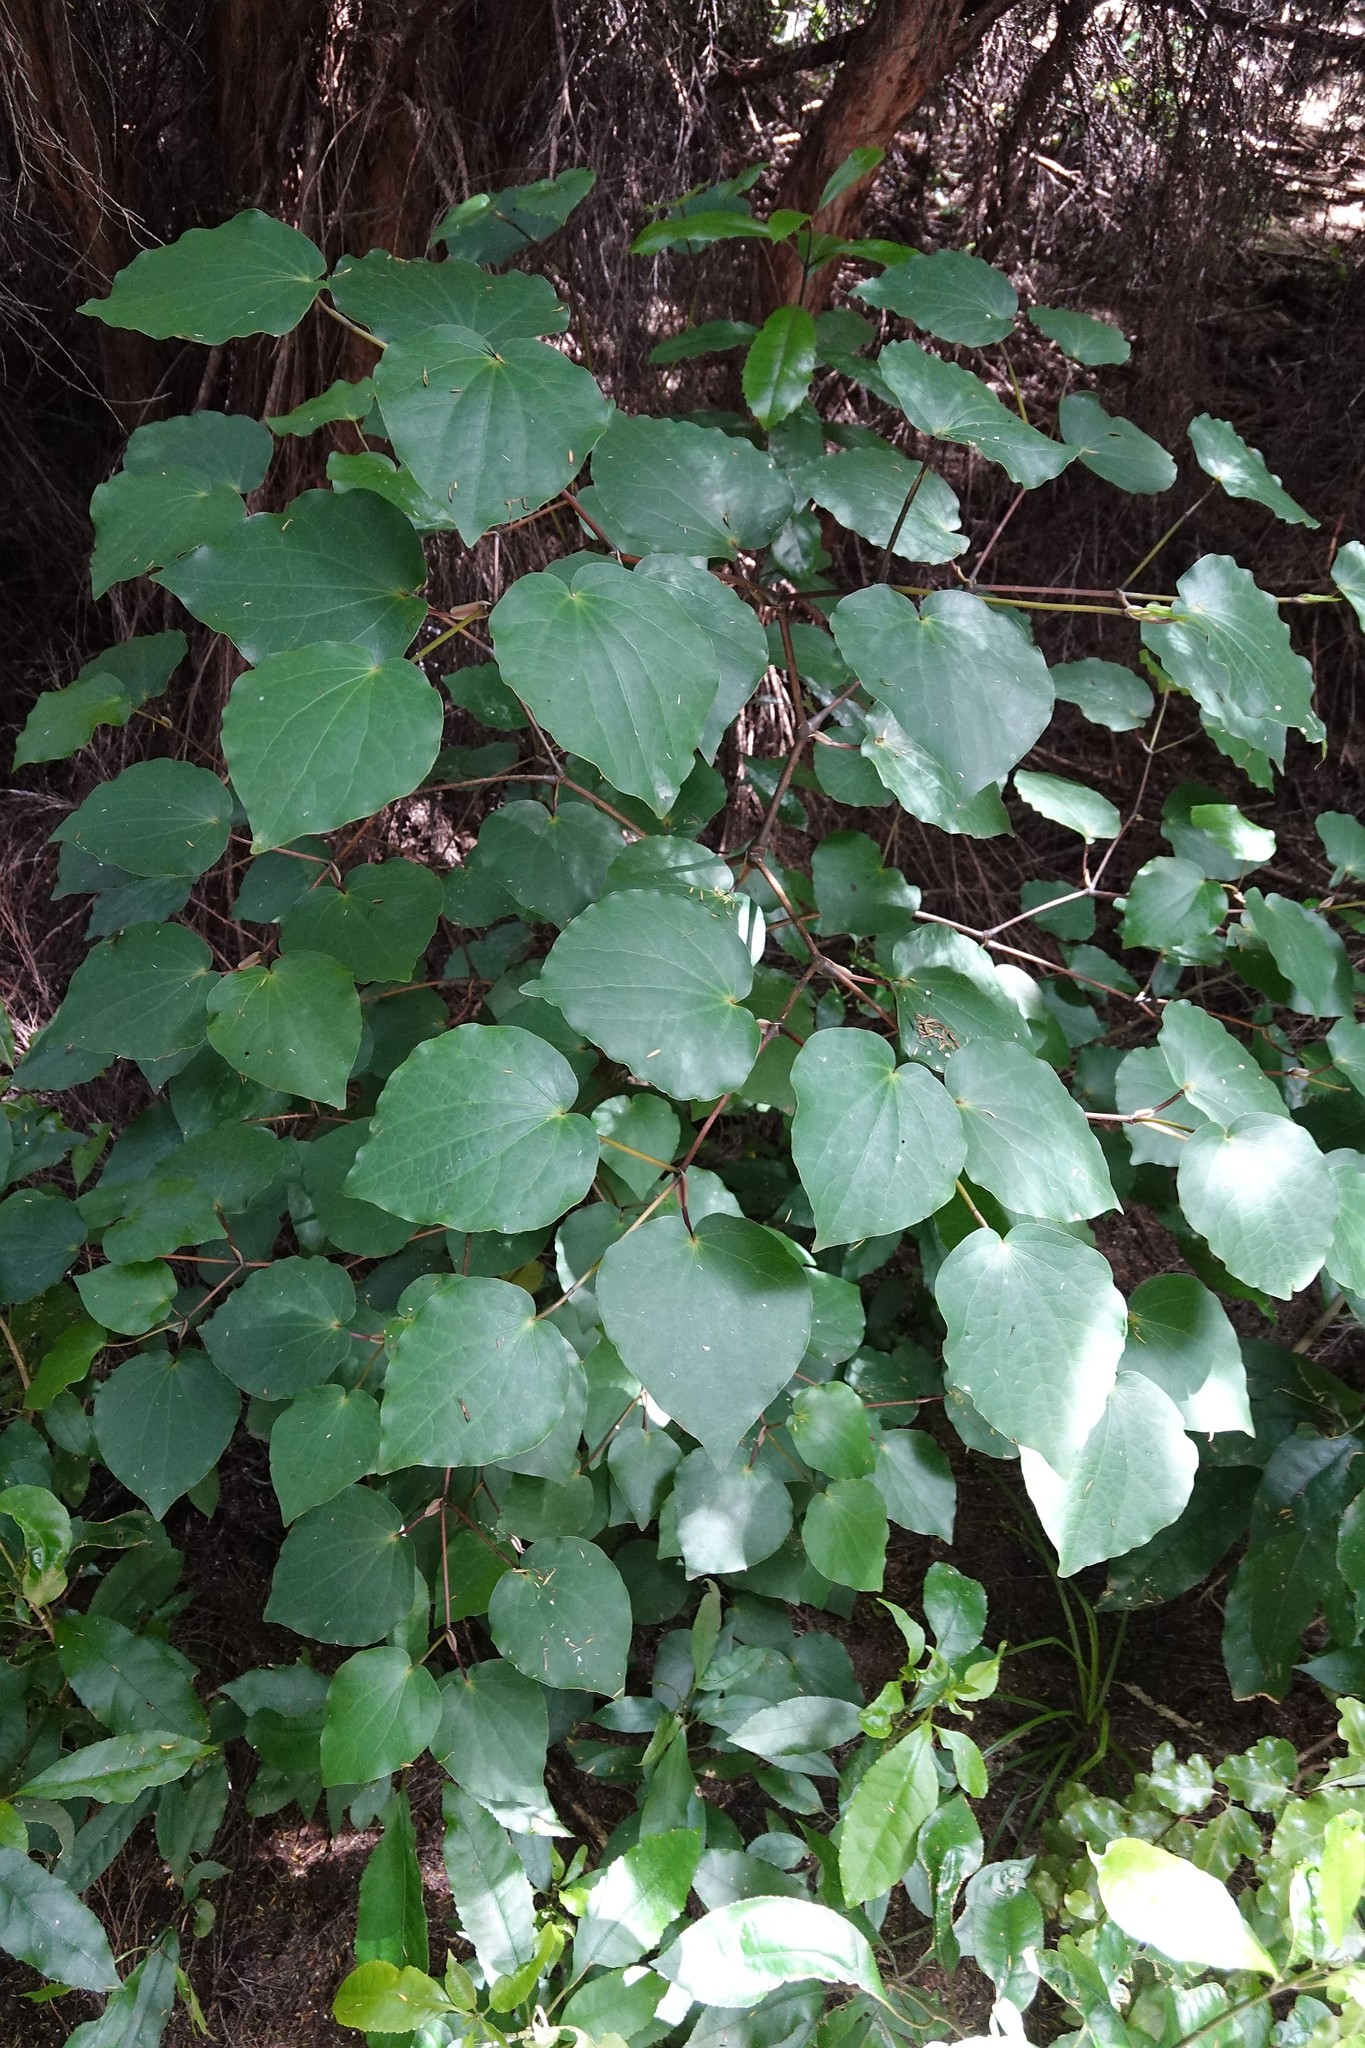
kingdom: Plantae
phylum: Tracheophyta
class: Magnoliopsida
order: Piperales
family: Piperaceae
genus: Macropiper
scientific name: Macropiper excelsum
